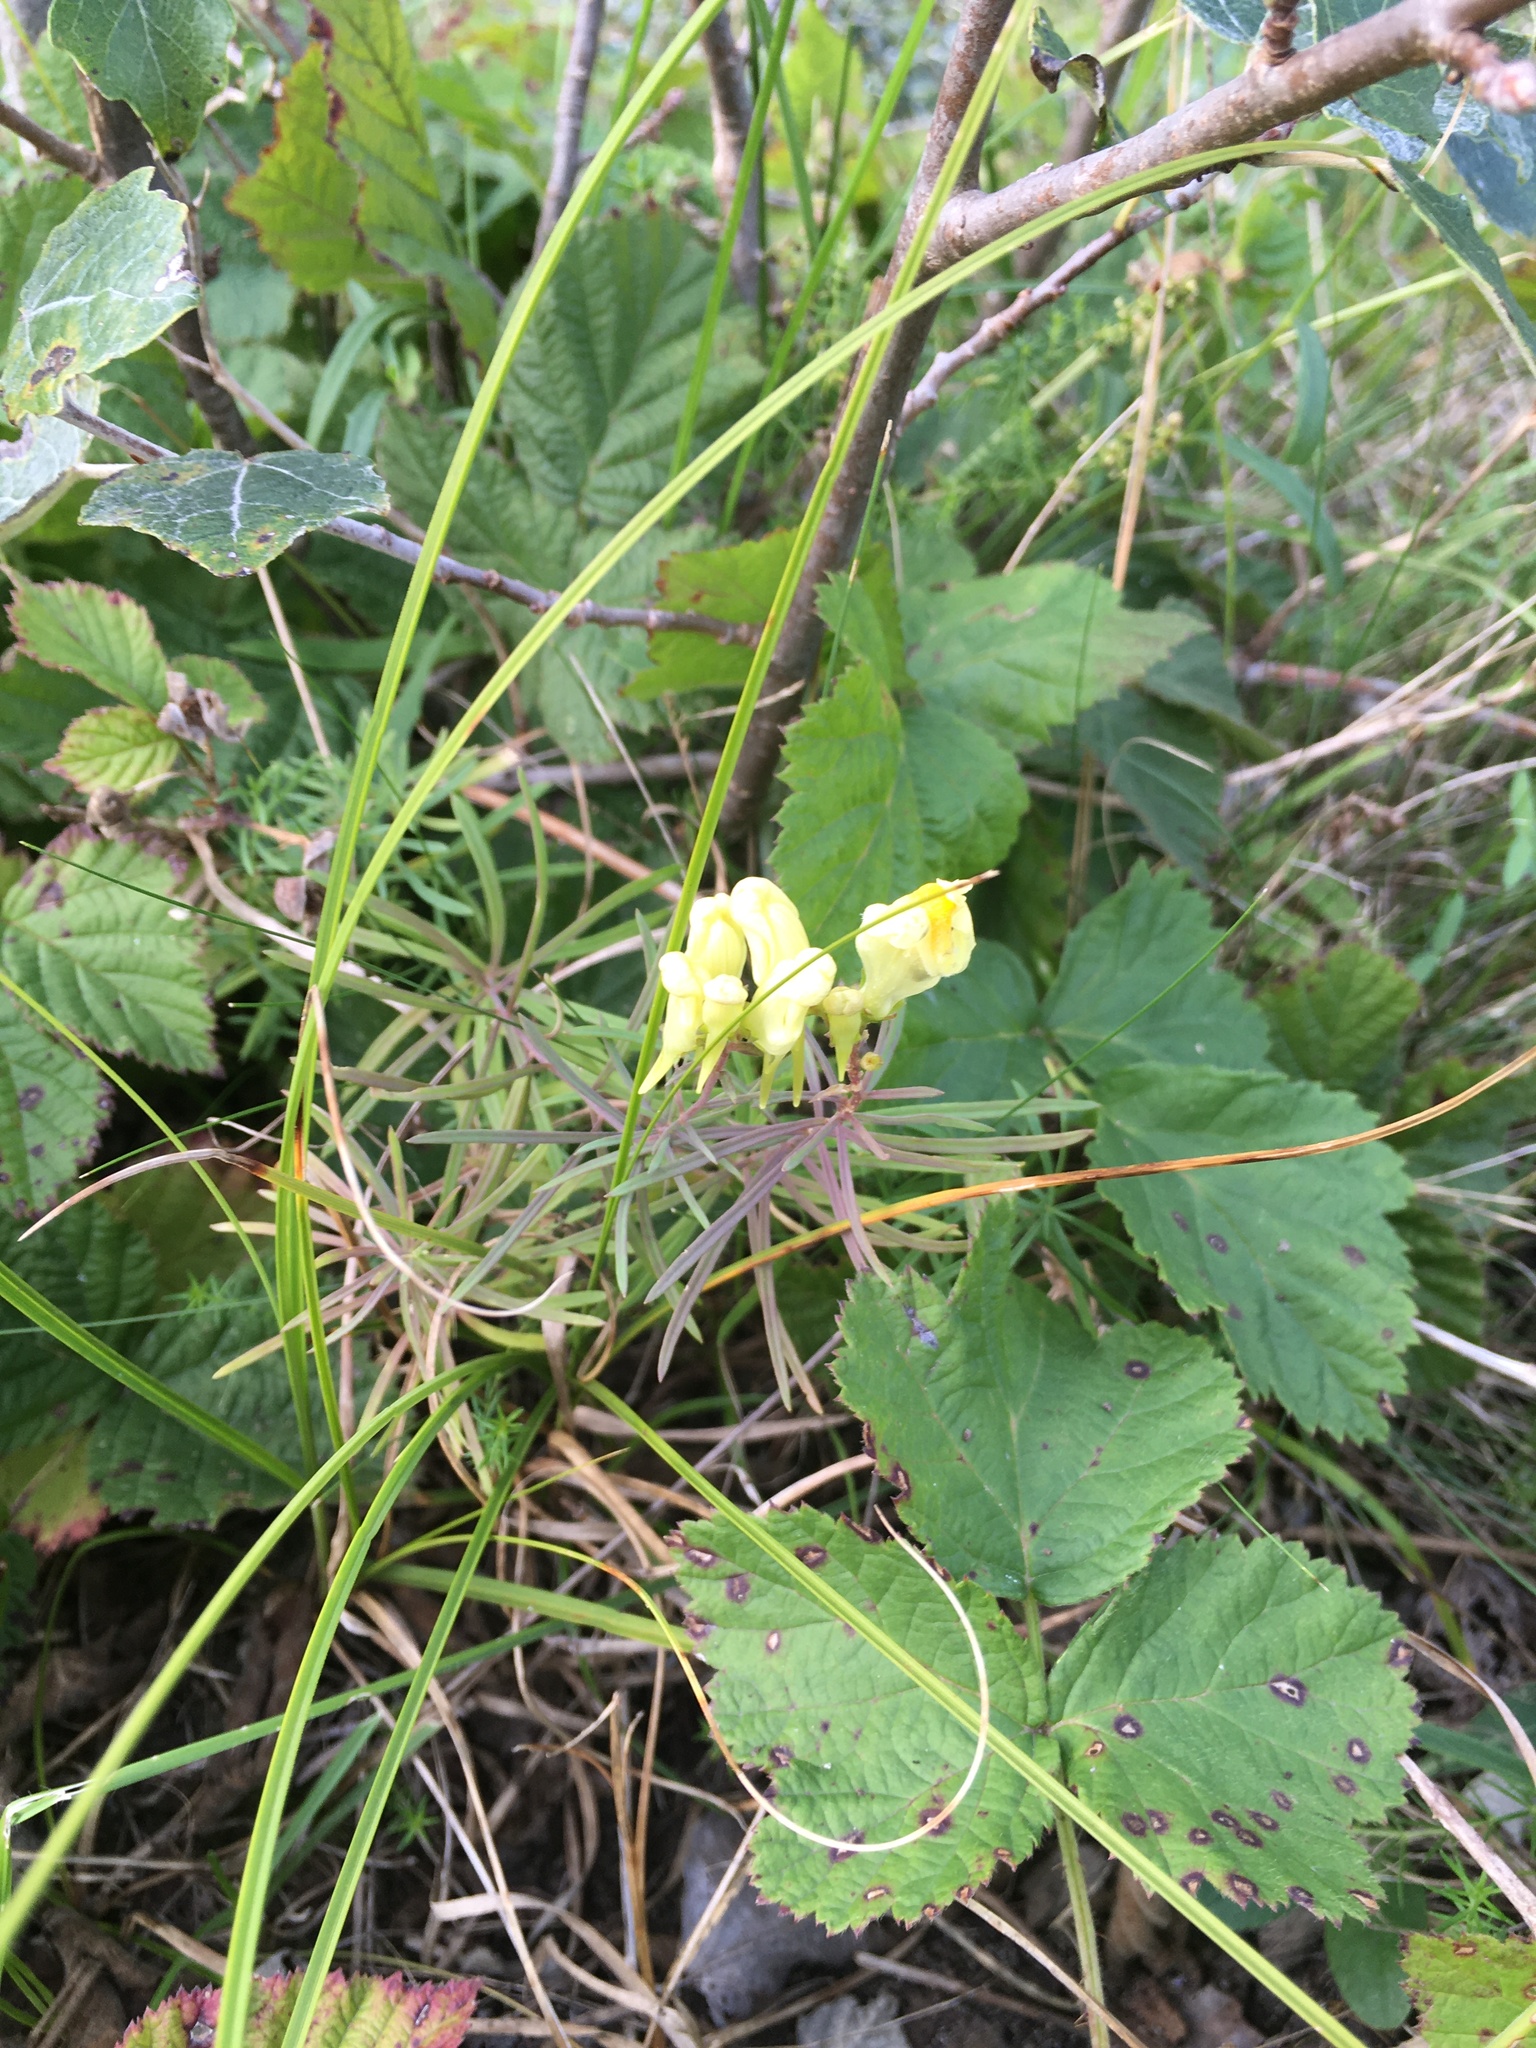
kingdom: Plantae
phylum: Tracheophyta
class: Magnoliopsida
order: Lamiales
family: Plantaginaceae
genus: Linaria
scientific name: Linaria vulgaris
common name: Butter and eggs
